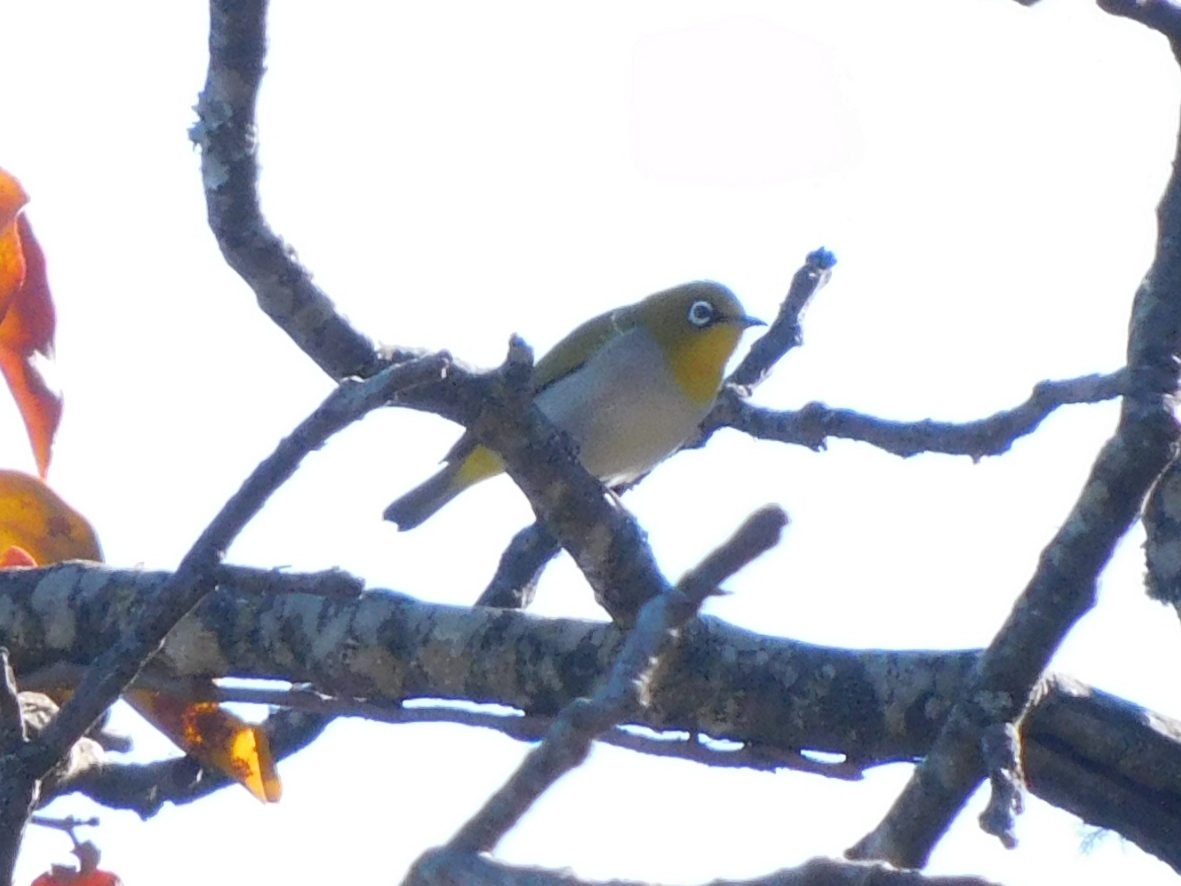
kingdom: Animalia
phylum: Chordata
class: Aves
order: Passeriformes
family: Zosteropidae
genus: Zosterops
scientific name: Zosterops palpebrosus
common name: Oriental white-eye
